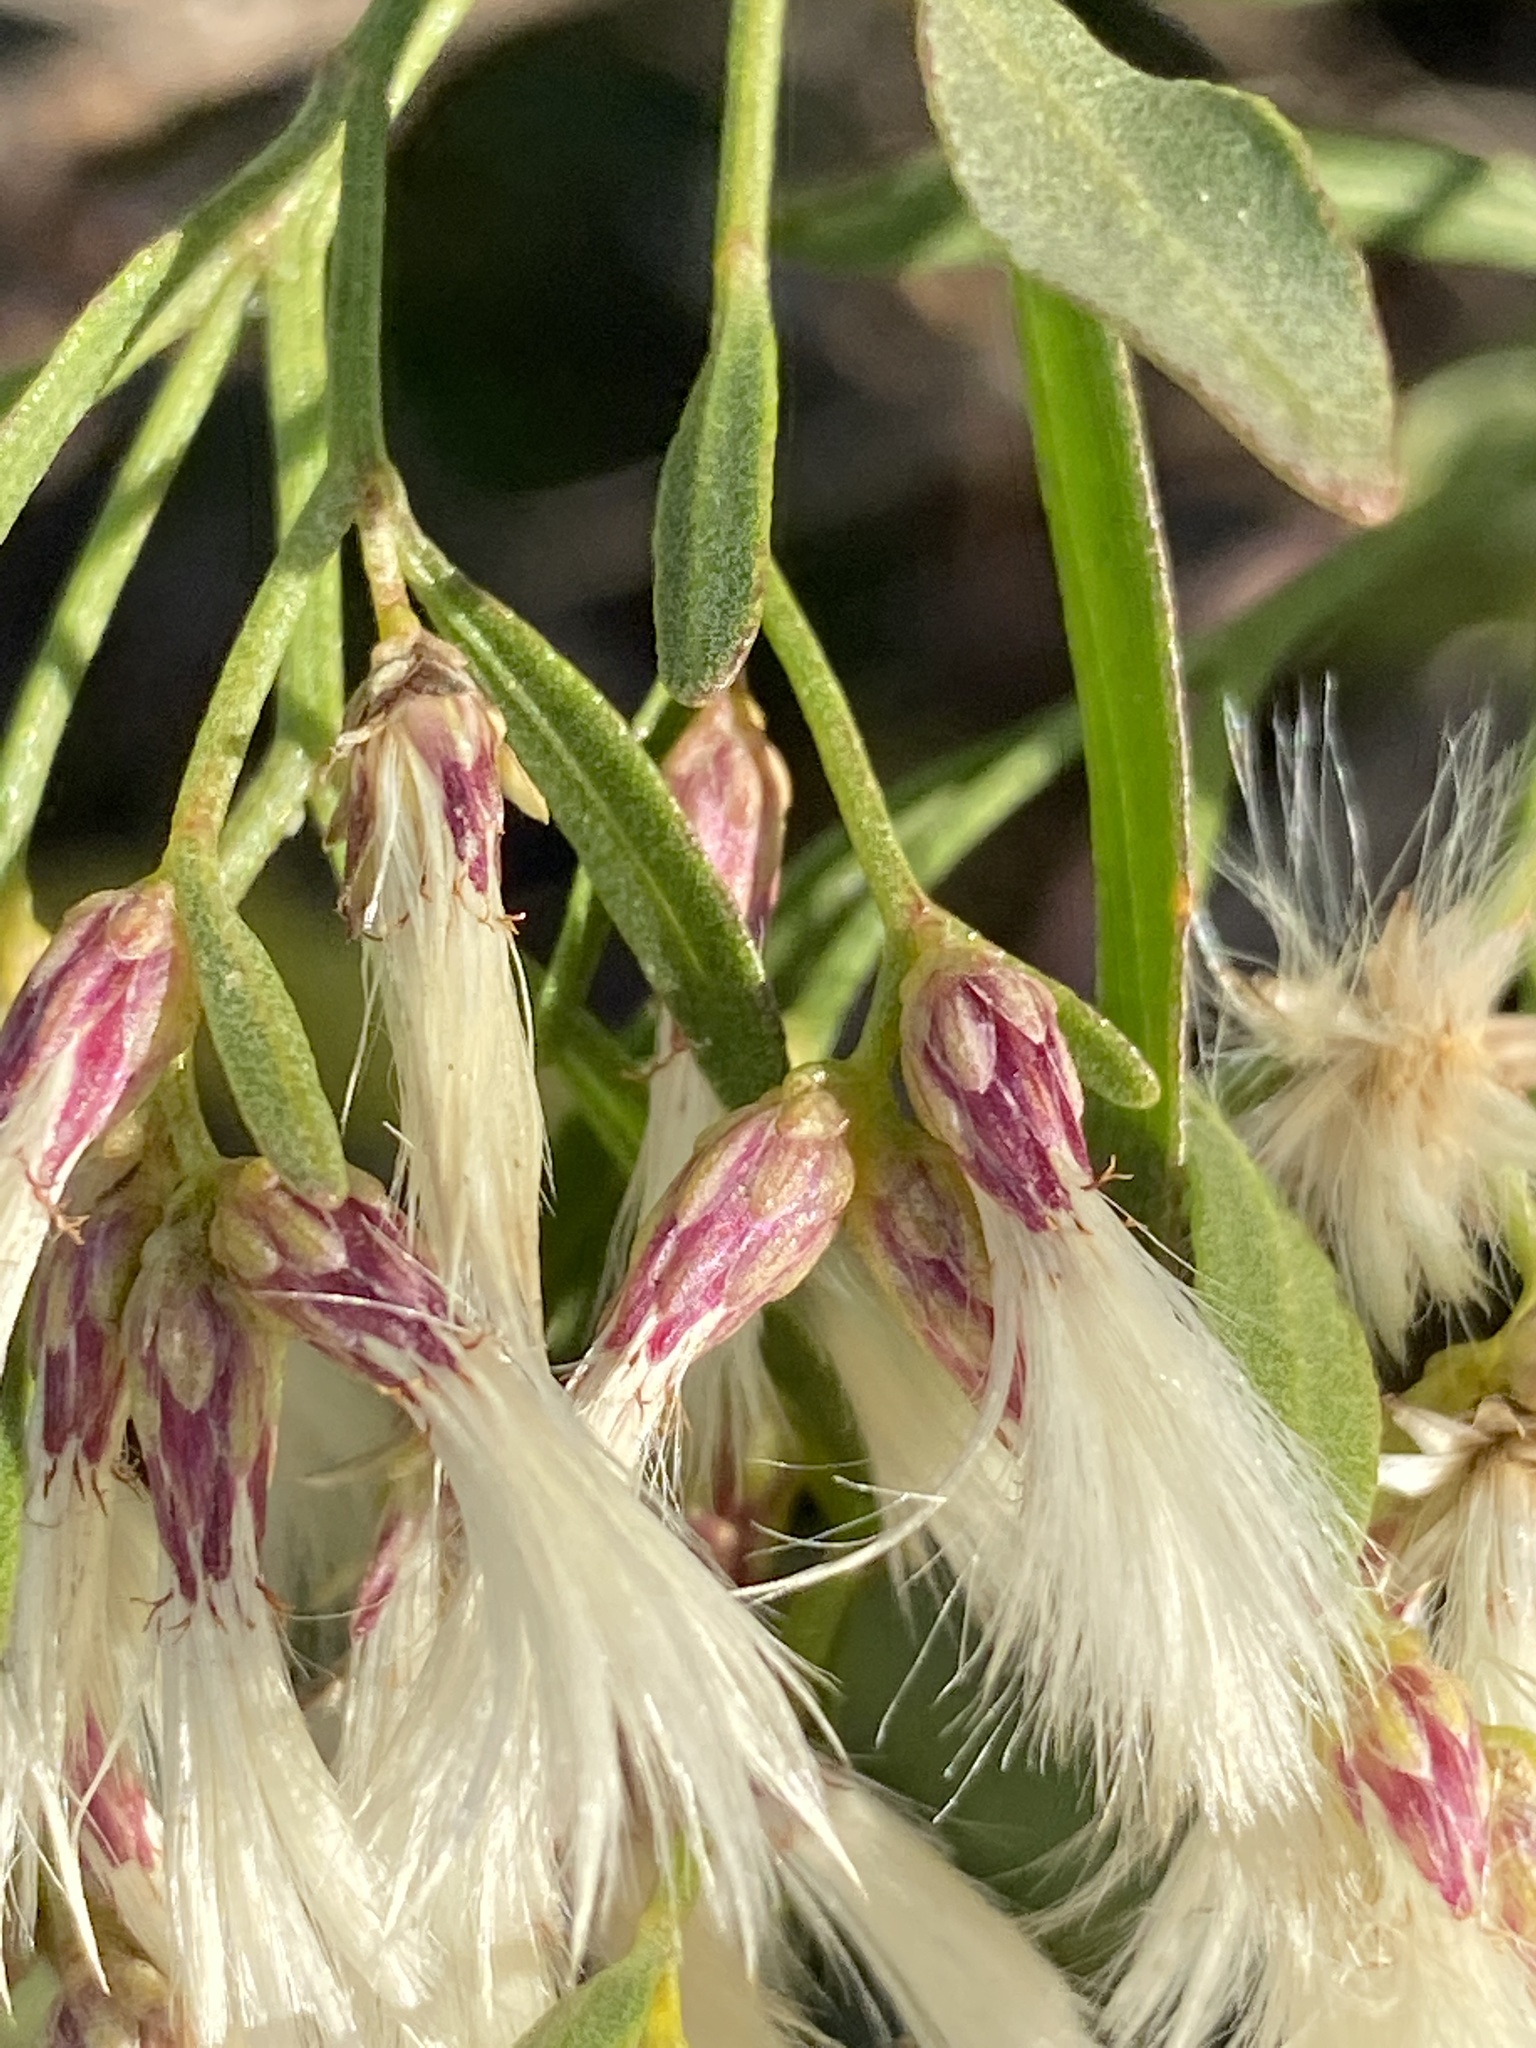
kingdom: Plantae
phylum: Tracheophyta
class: Magnoliopsida
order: Asterales
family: Asteraceae
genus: Baccharis
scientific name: Baccharis halimifolia
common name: Eastern baccharis
